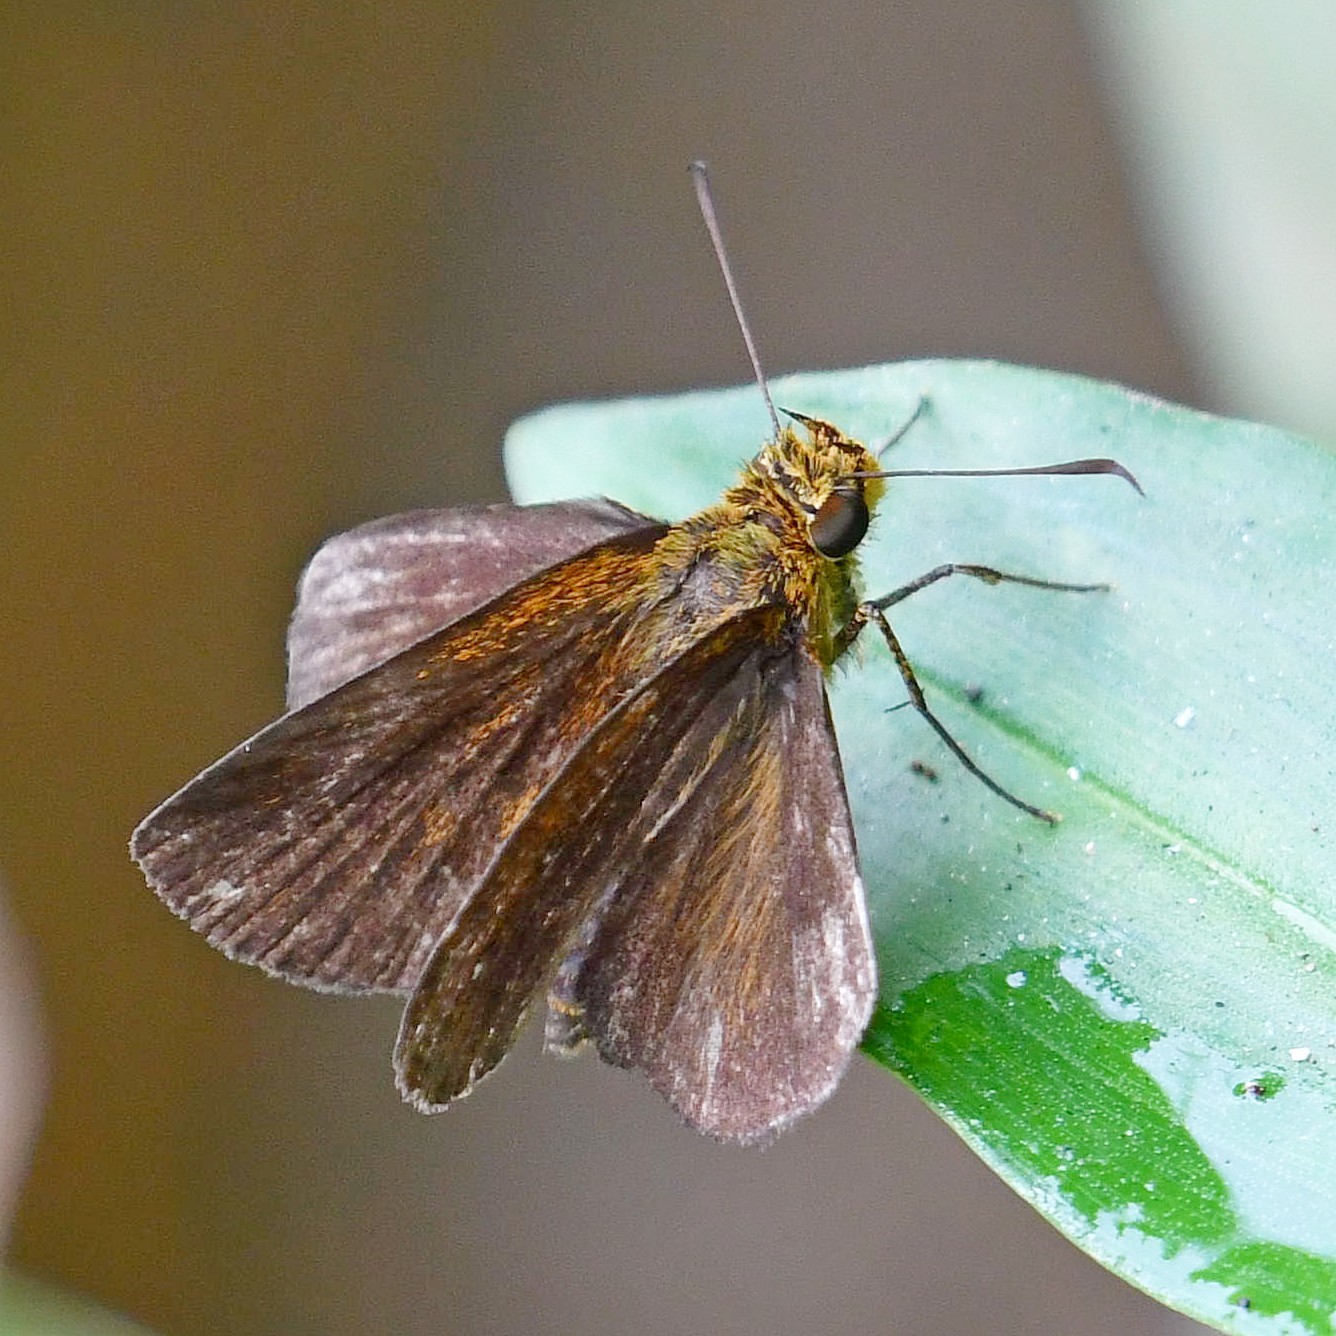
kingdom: Animalia
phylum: Arthropoda
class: Insecta
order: Lepidoptera
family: Hesperiidae
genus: Iambrix
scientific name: Iambrix salsala
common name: Chestnut bob
